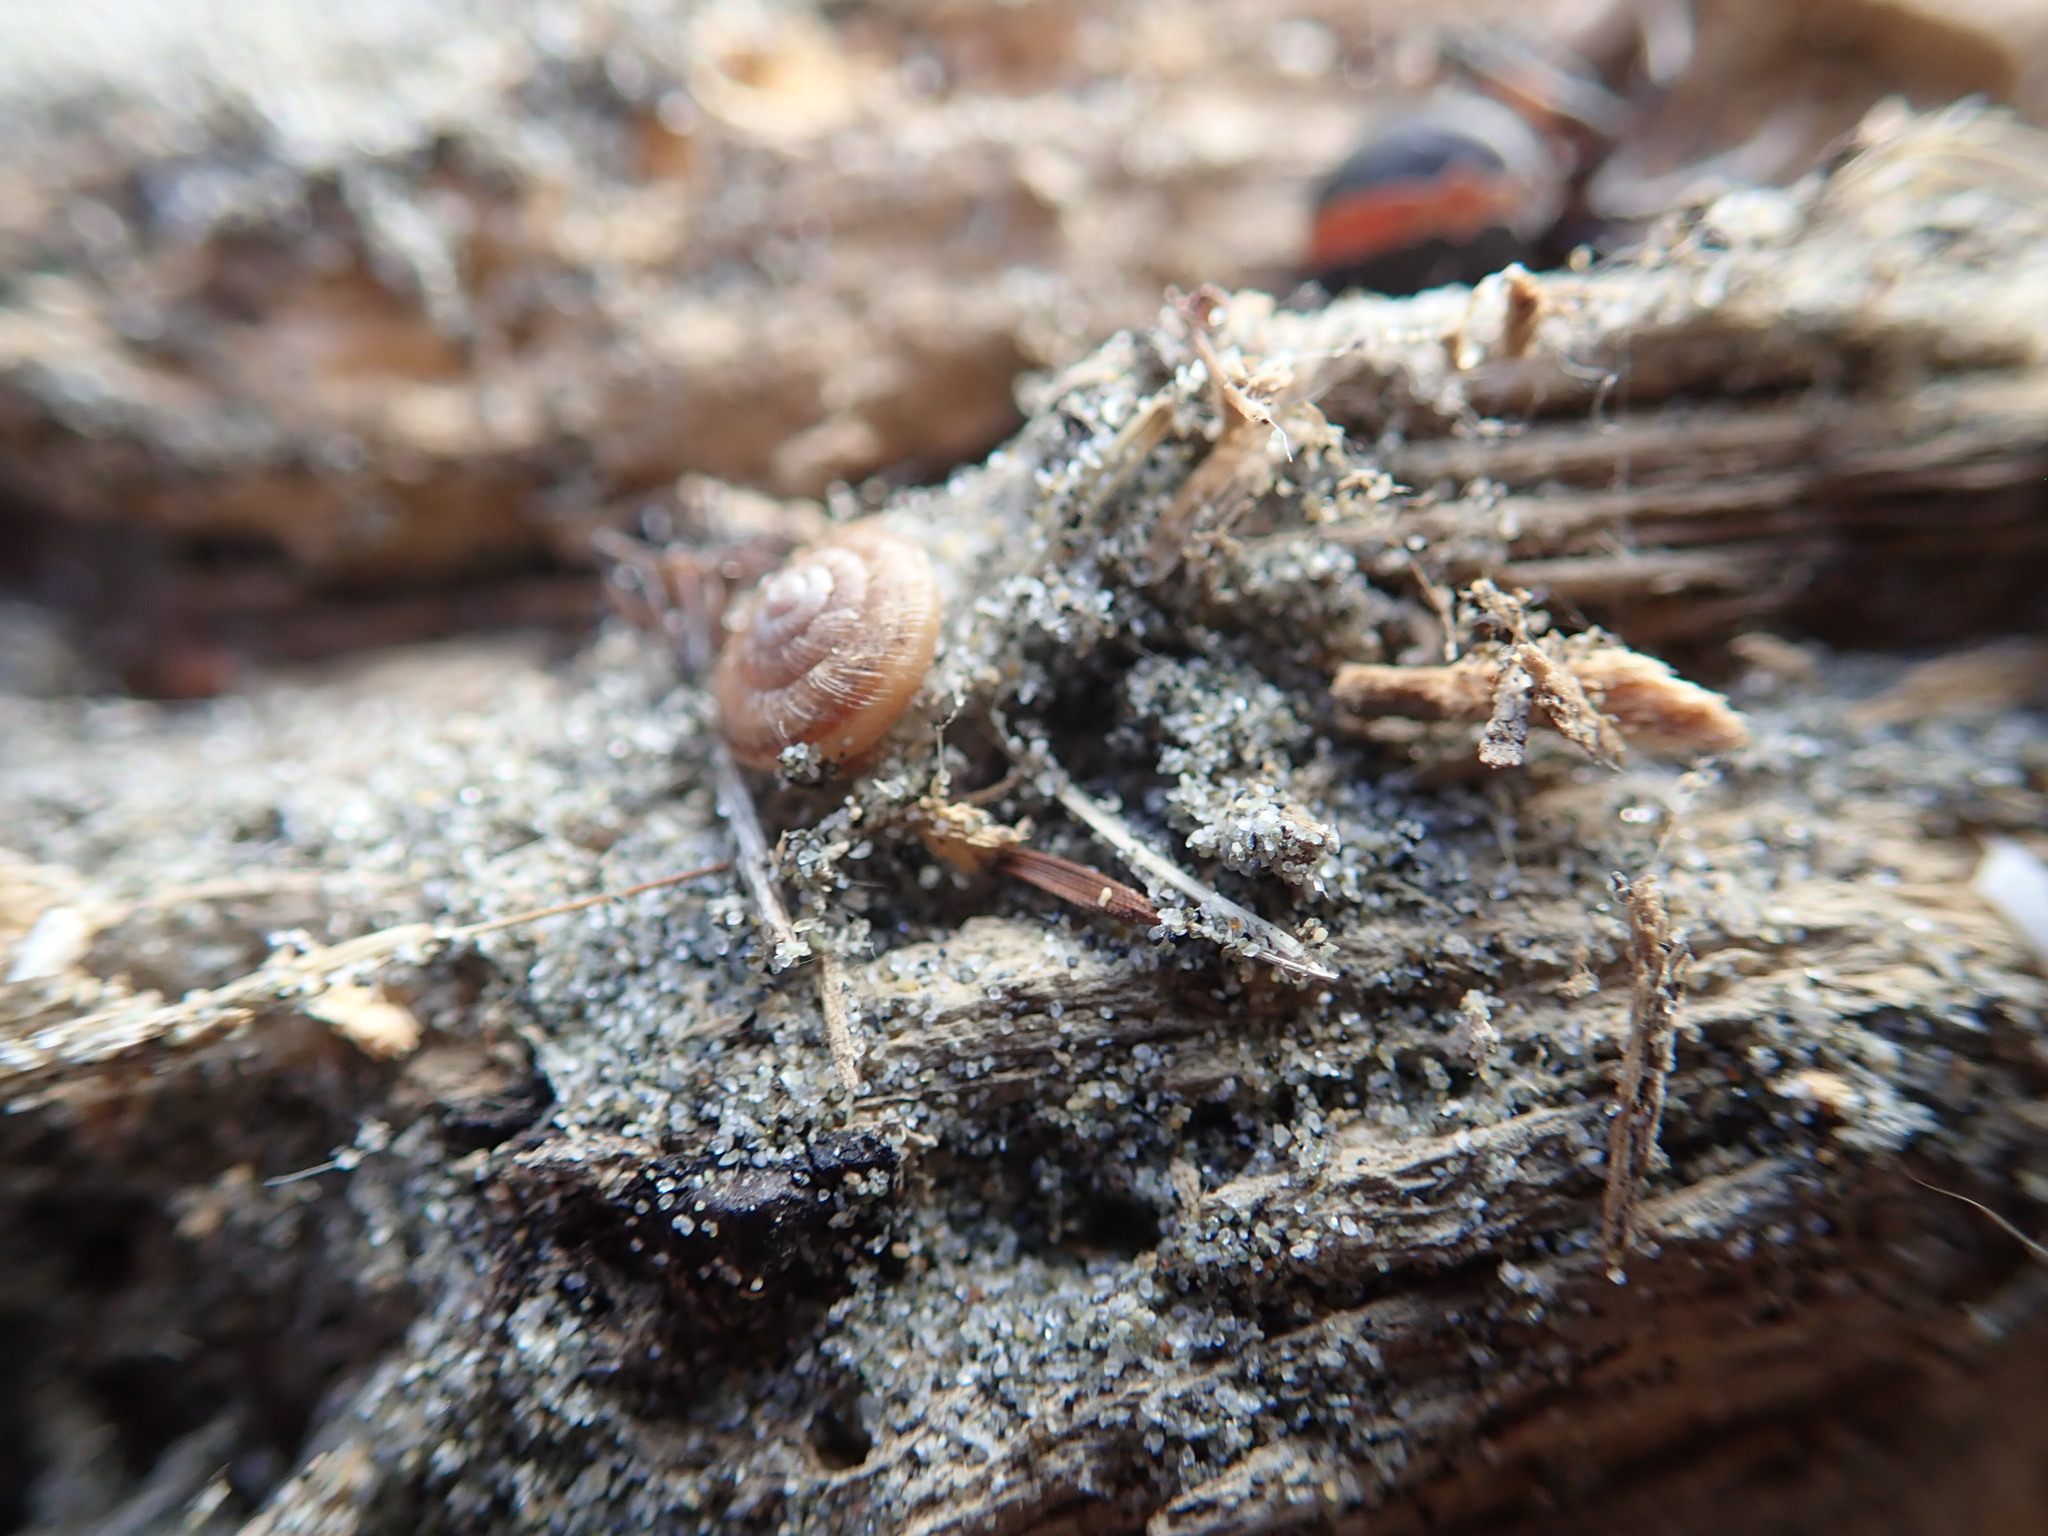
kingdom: Animalia
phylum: Mollusca
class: Gastropoda
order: Stylommatophora
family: Geomitridae
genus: Xeroplexa
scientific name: Xeroplexa intersecta
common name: Wrinkled snail
